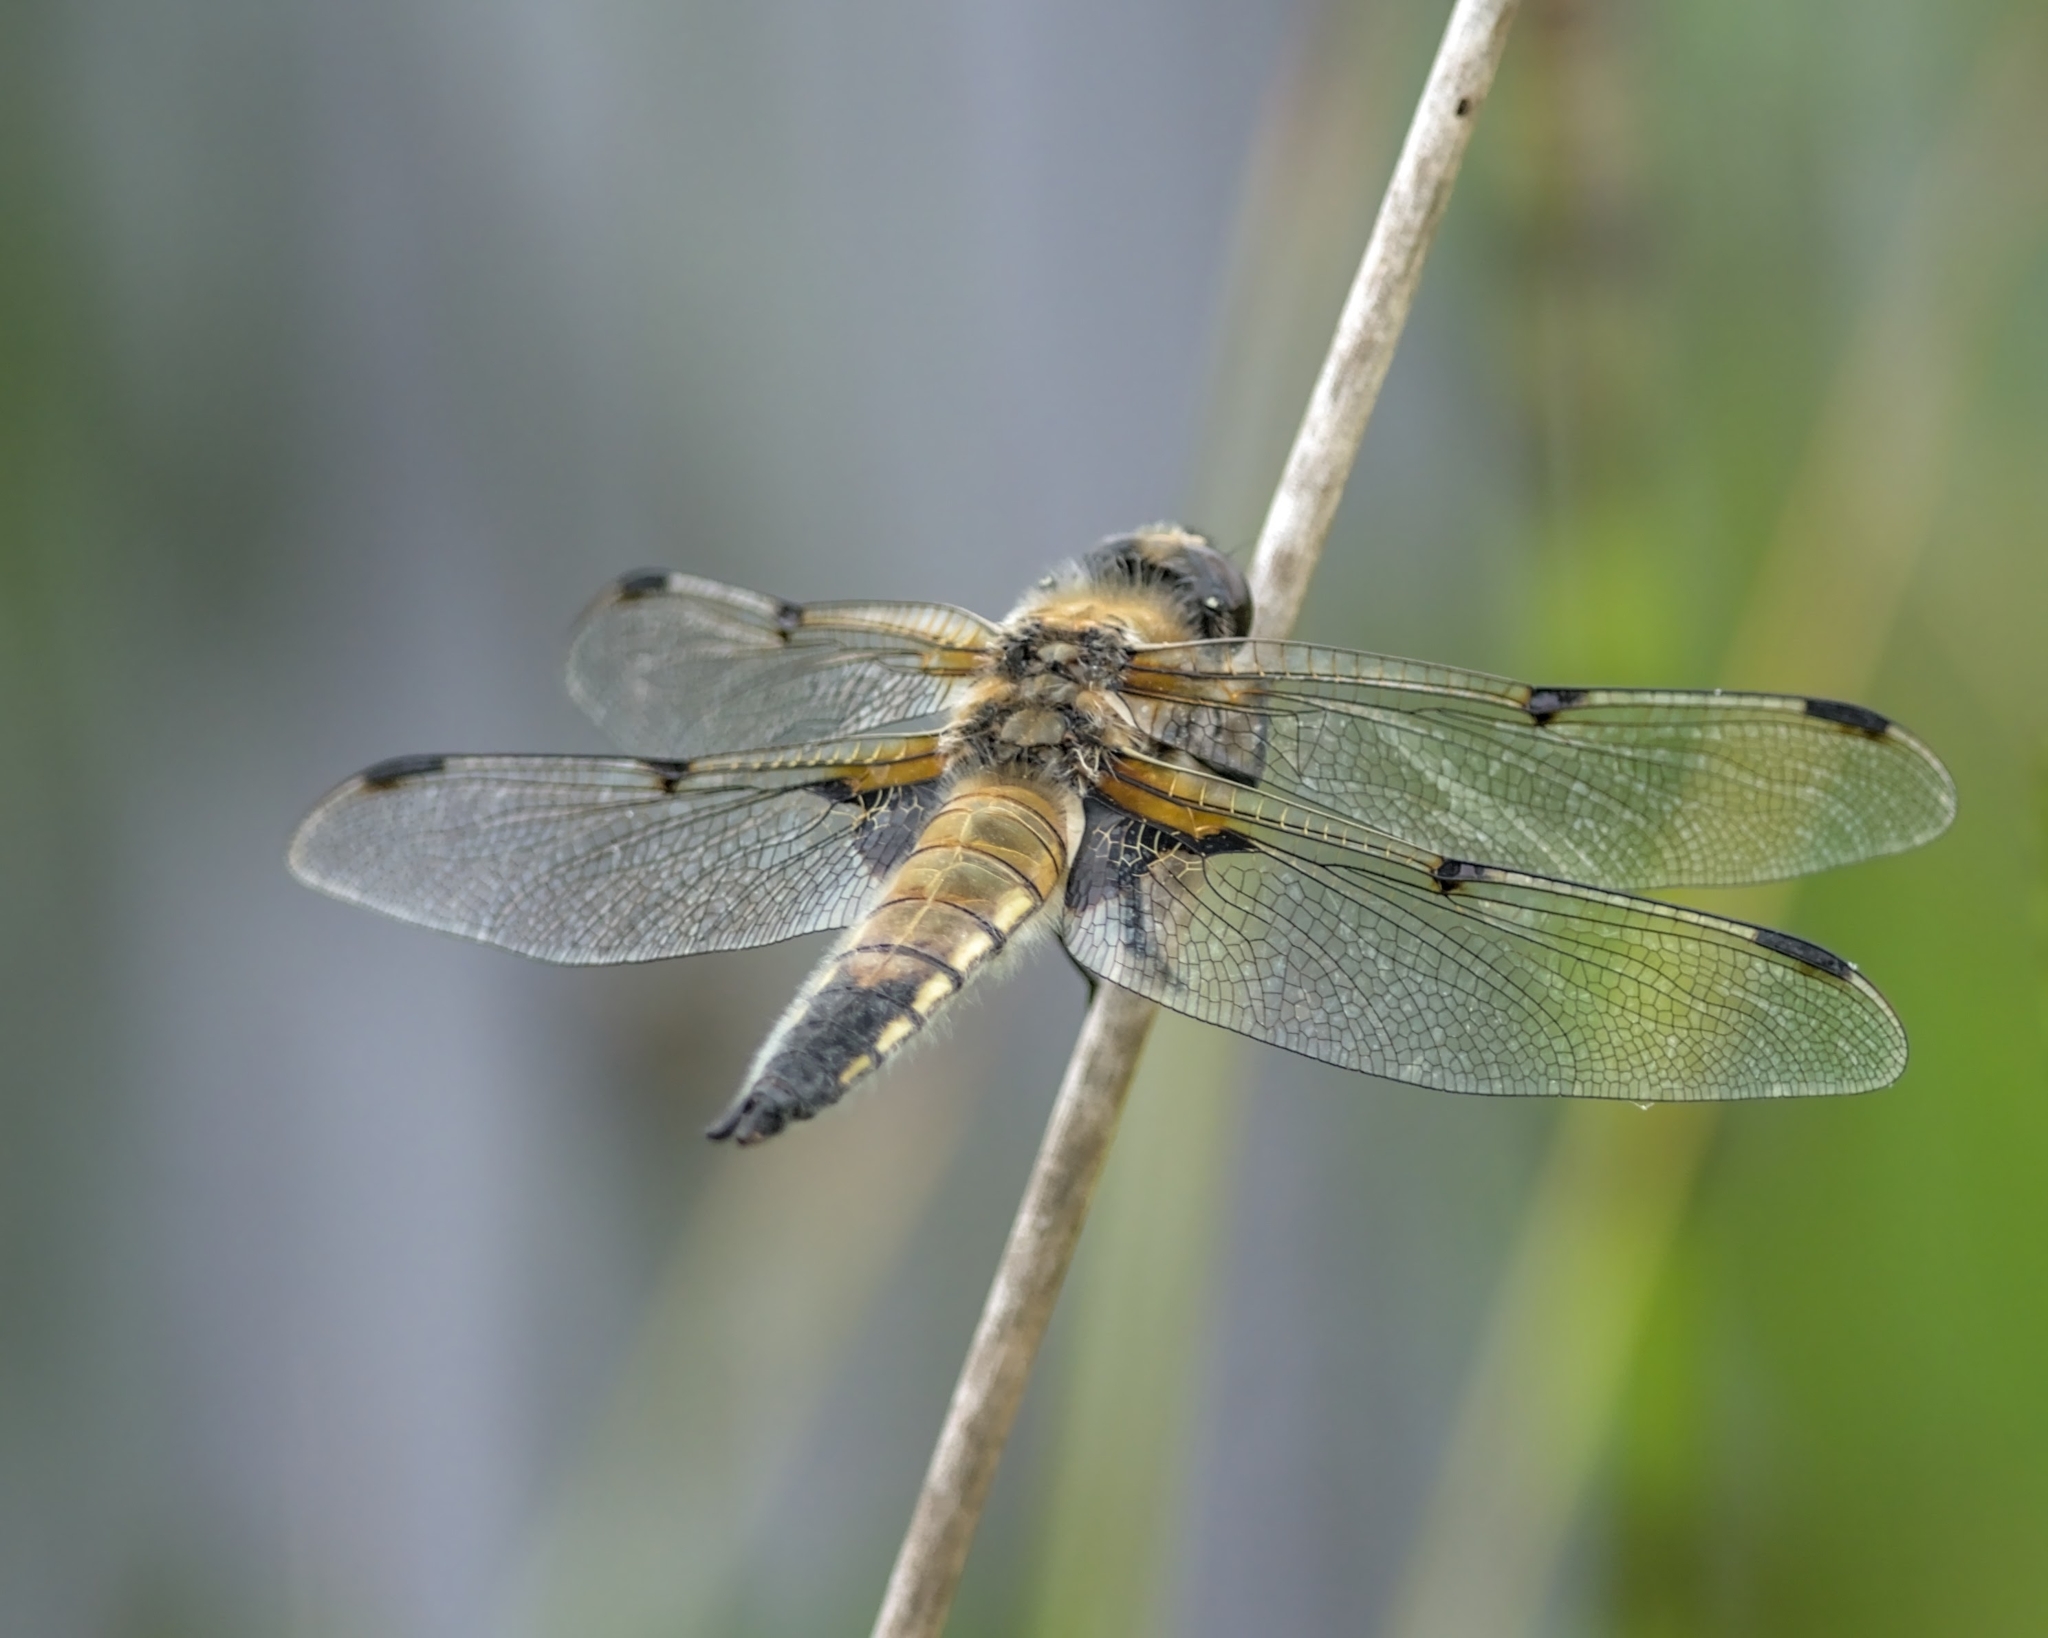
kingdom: Animalia
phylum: Arthropoda
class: Insecta
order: Odonata
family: Libellulidae
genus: Libellula
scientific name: Libellula quadrimaculata
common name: Four-spotted chaser
